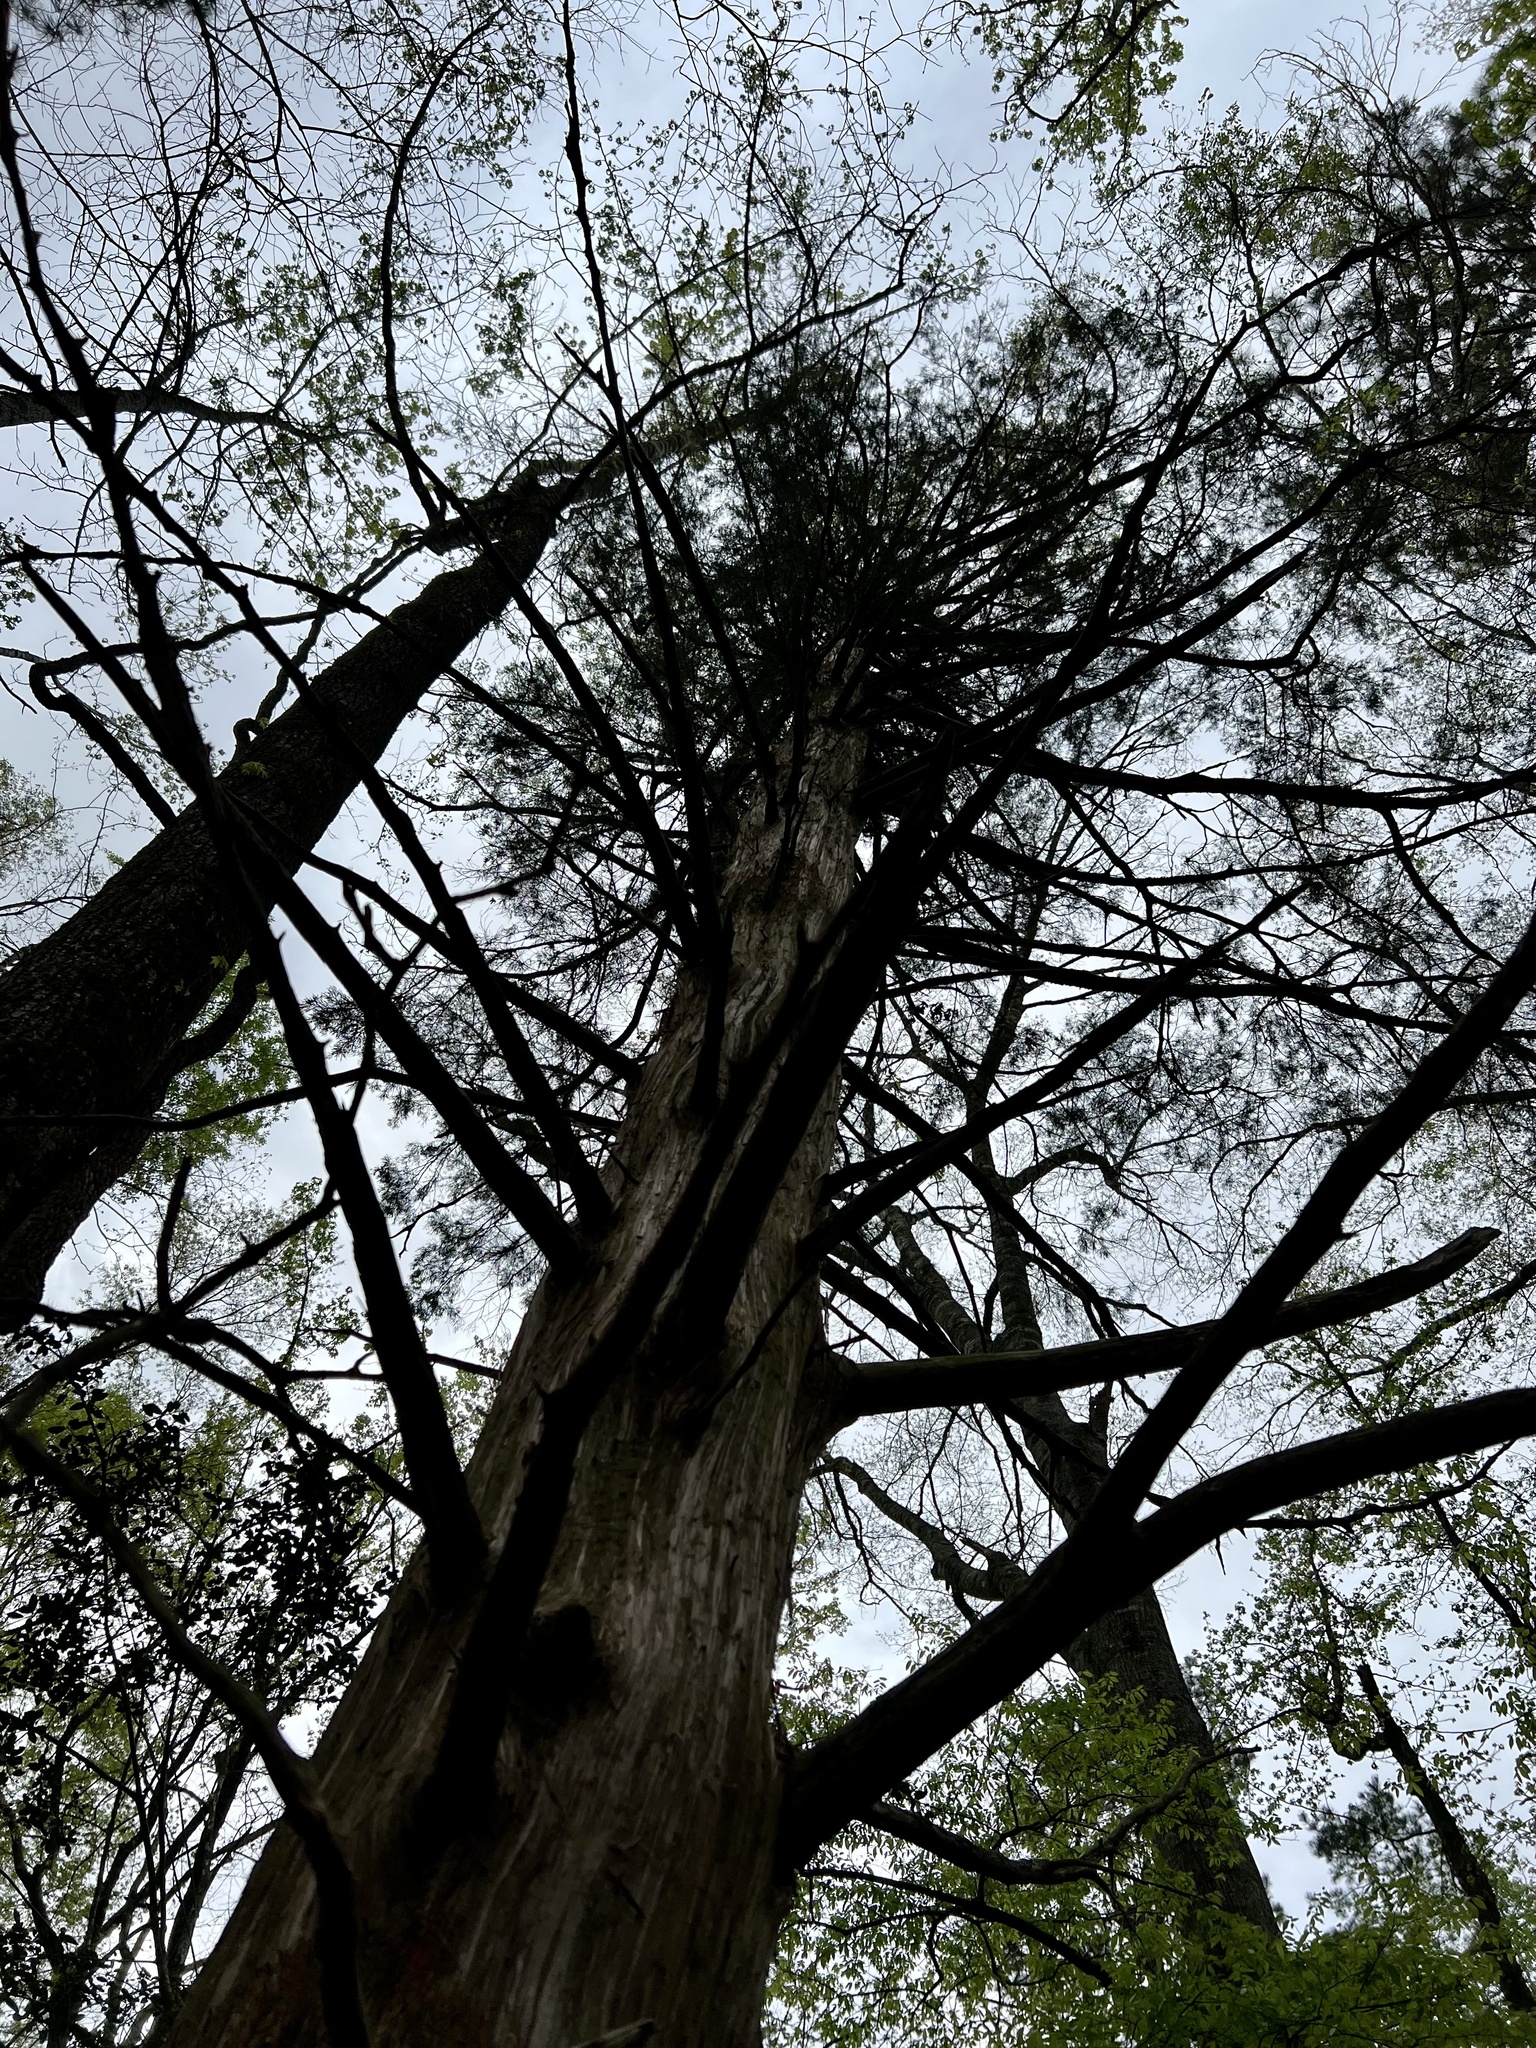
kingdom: Plantae
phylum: Tracheophyta
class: Pinopsida
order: Pinales
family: Cupressaceae
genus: Juniperus
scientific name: Juniperus virginiana
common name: Red juniper
